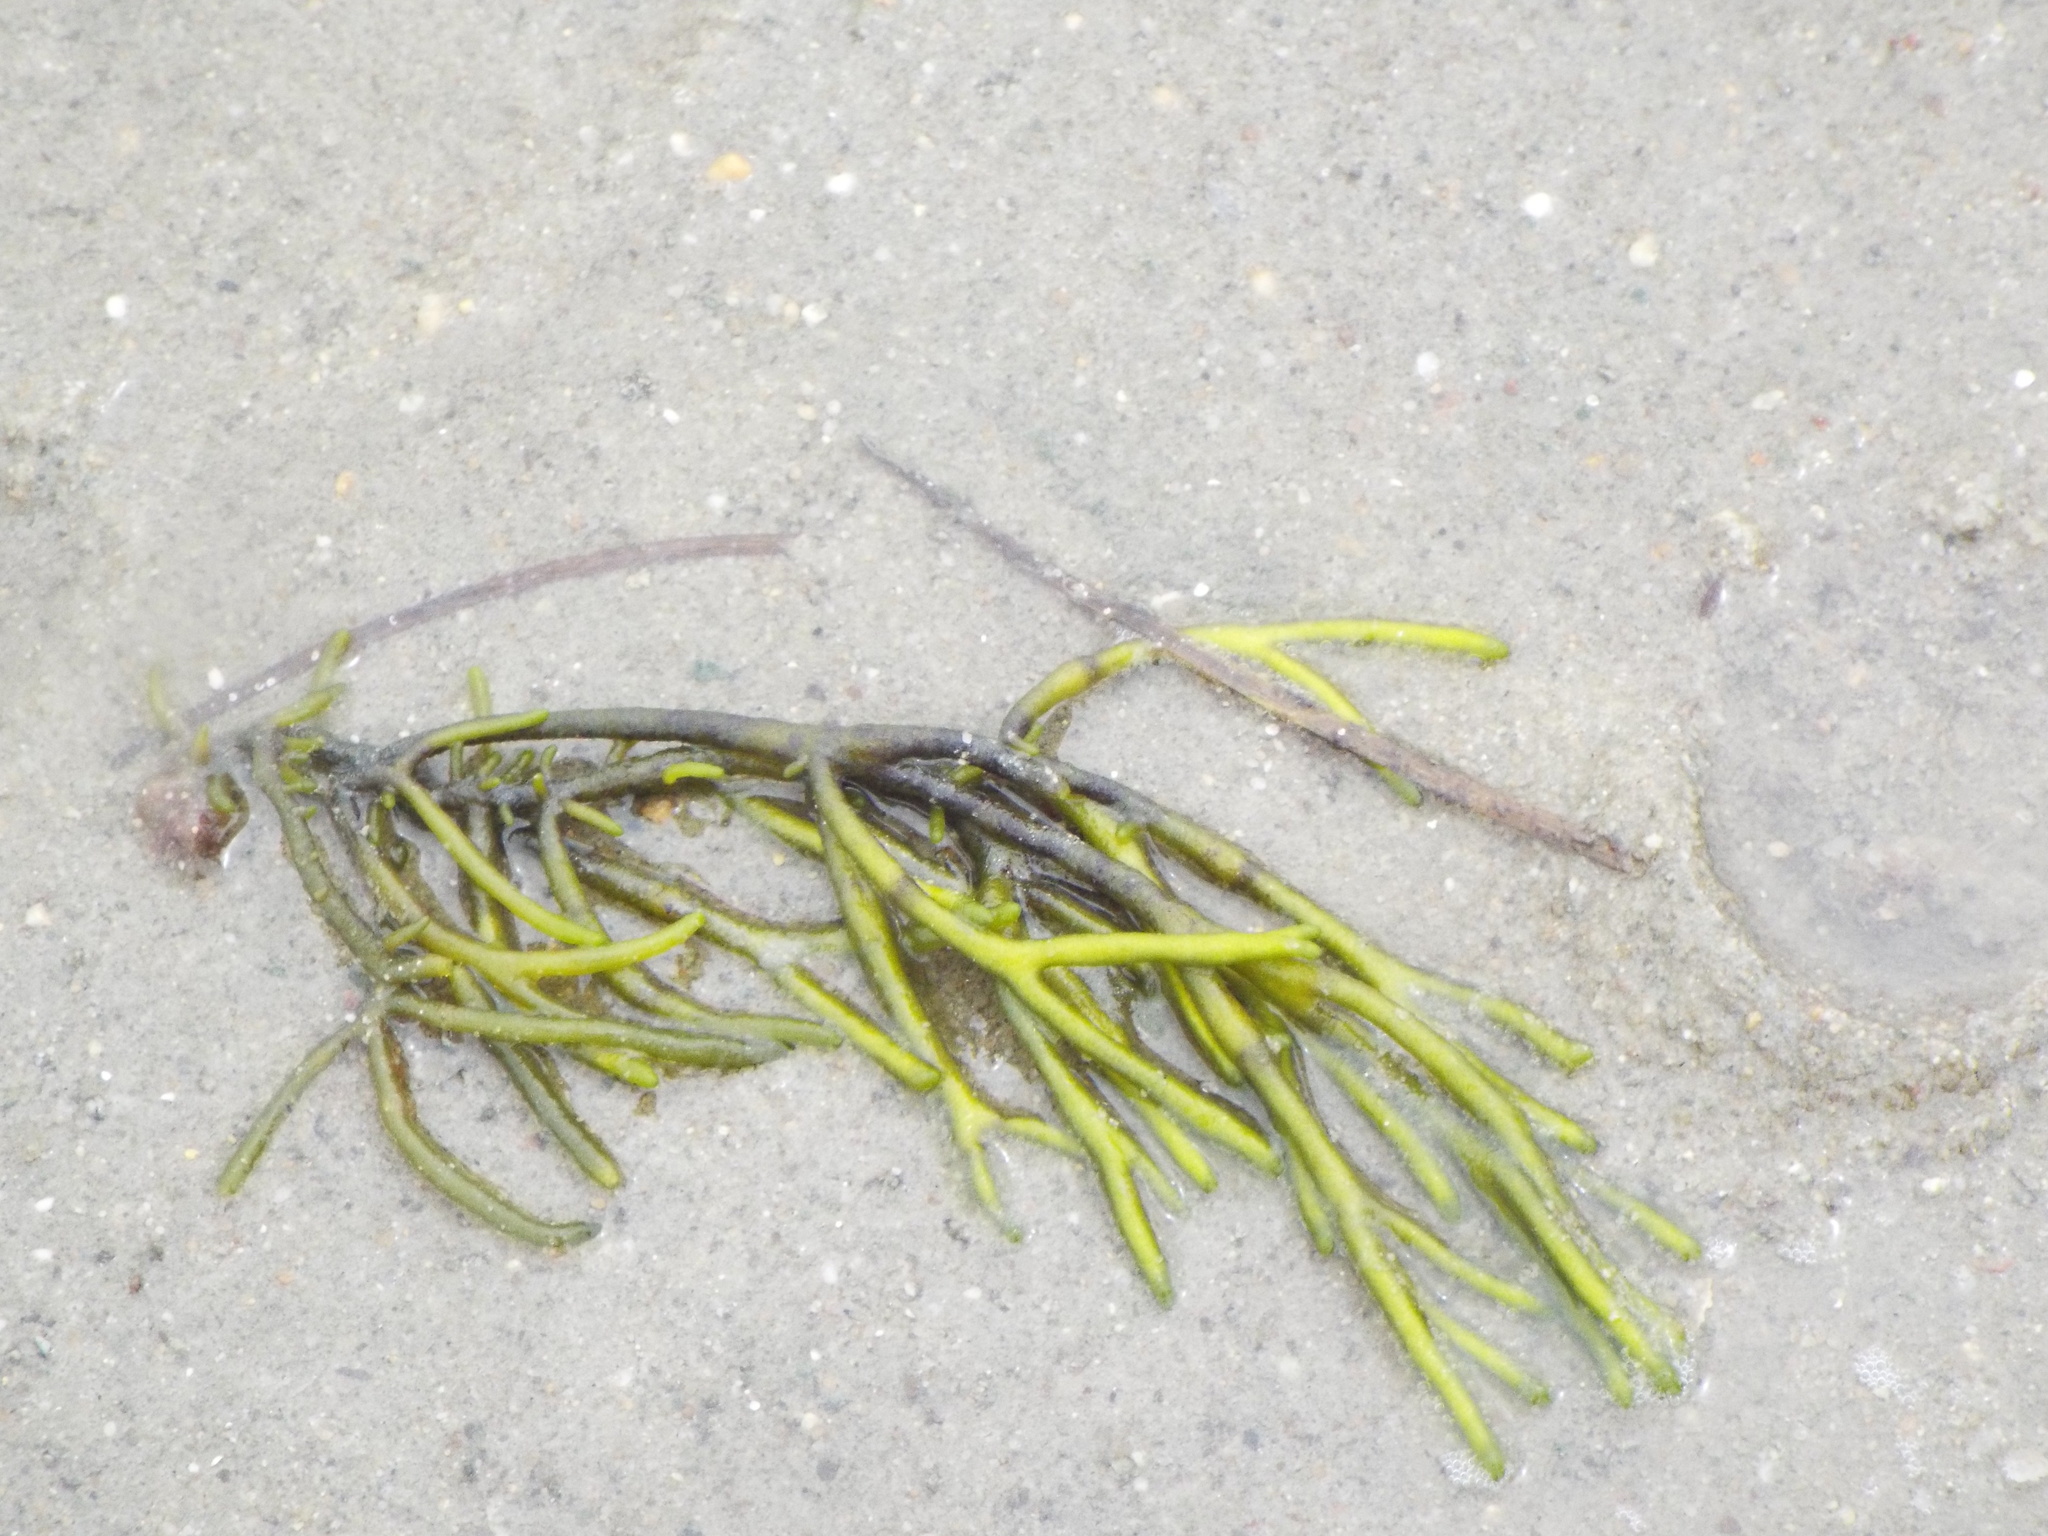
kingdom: Plantae
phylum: Chlorophyta
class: Ulvophyceae
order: Bryopsidales
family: Codiaceae
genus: Codium
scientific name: Codium fragile
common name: Dead man's fingers
